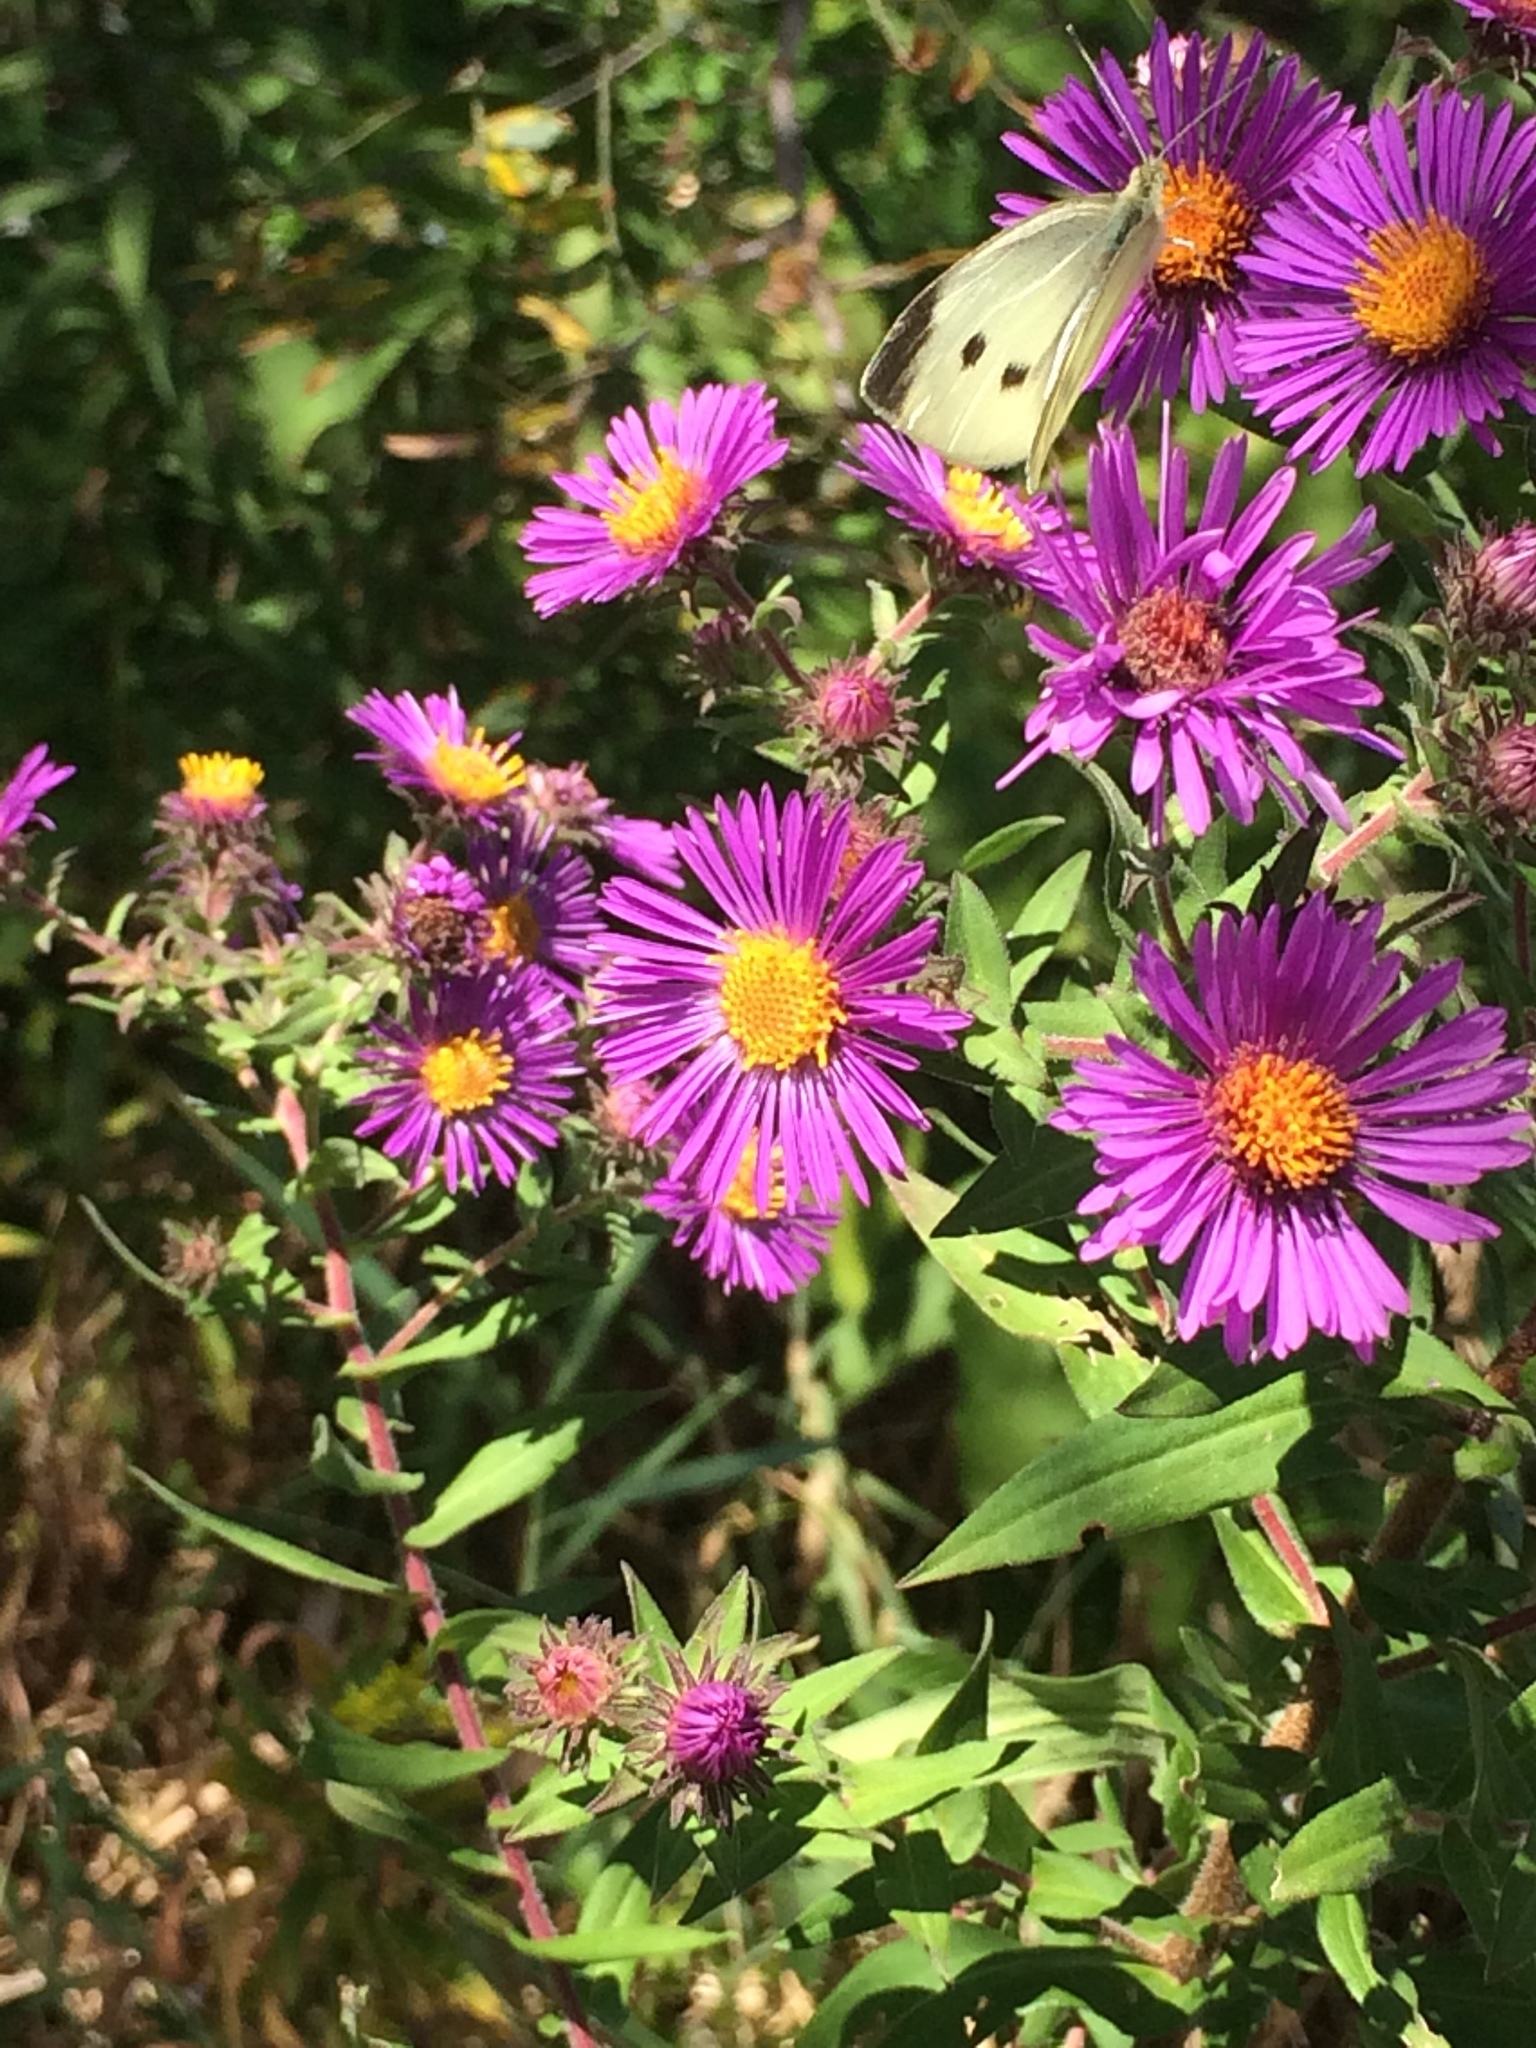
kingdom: Plantae
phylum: Tracheophyta
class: Magnoliopsida
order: Asterales
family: Asteraceae
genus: Symphyotrichum
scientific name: Symphyotrichum novae-angliae
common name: Michaelmas daisy
